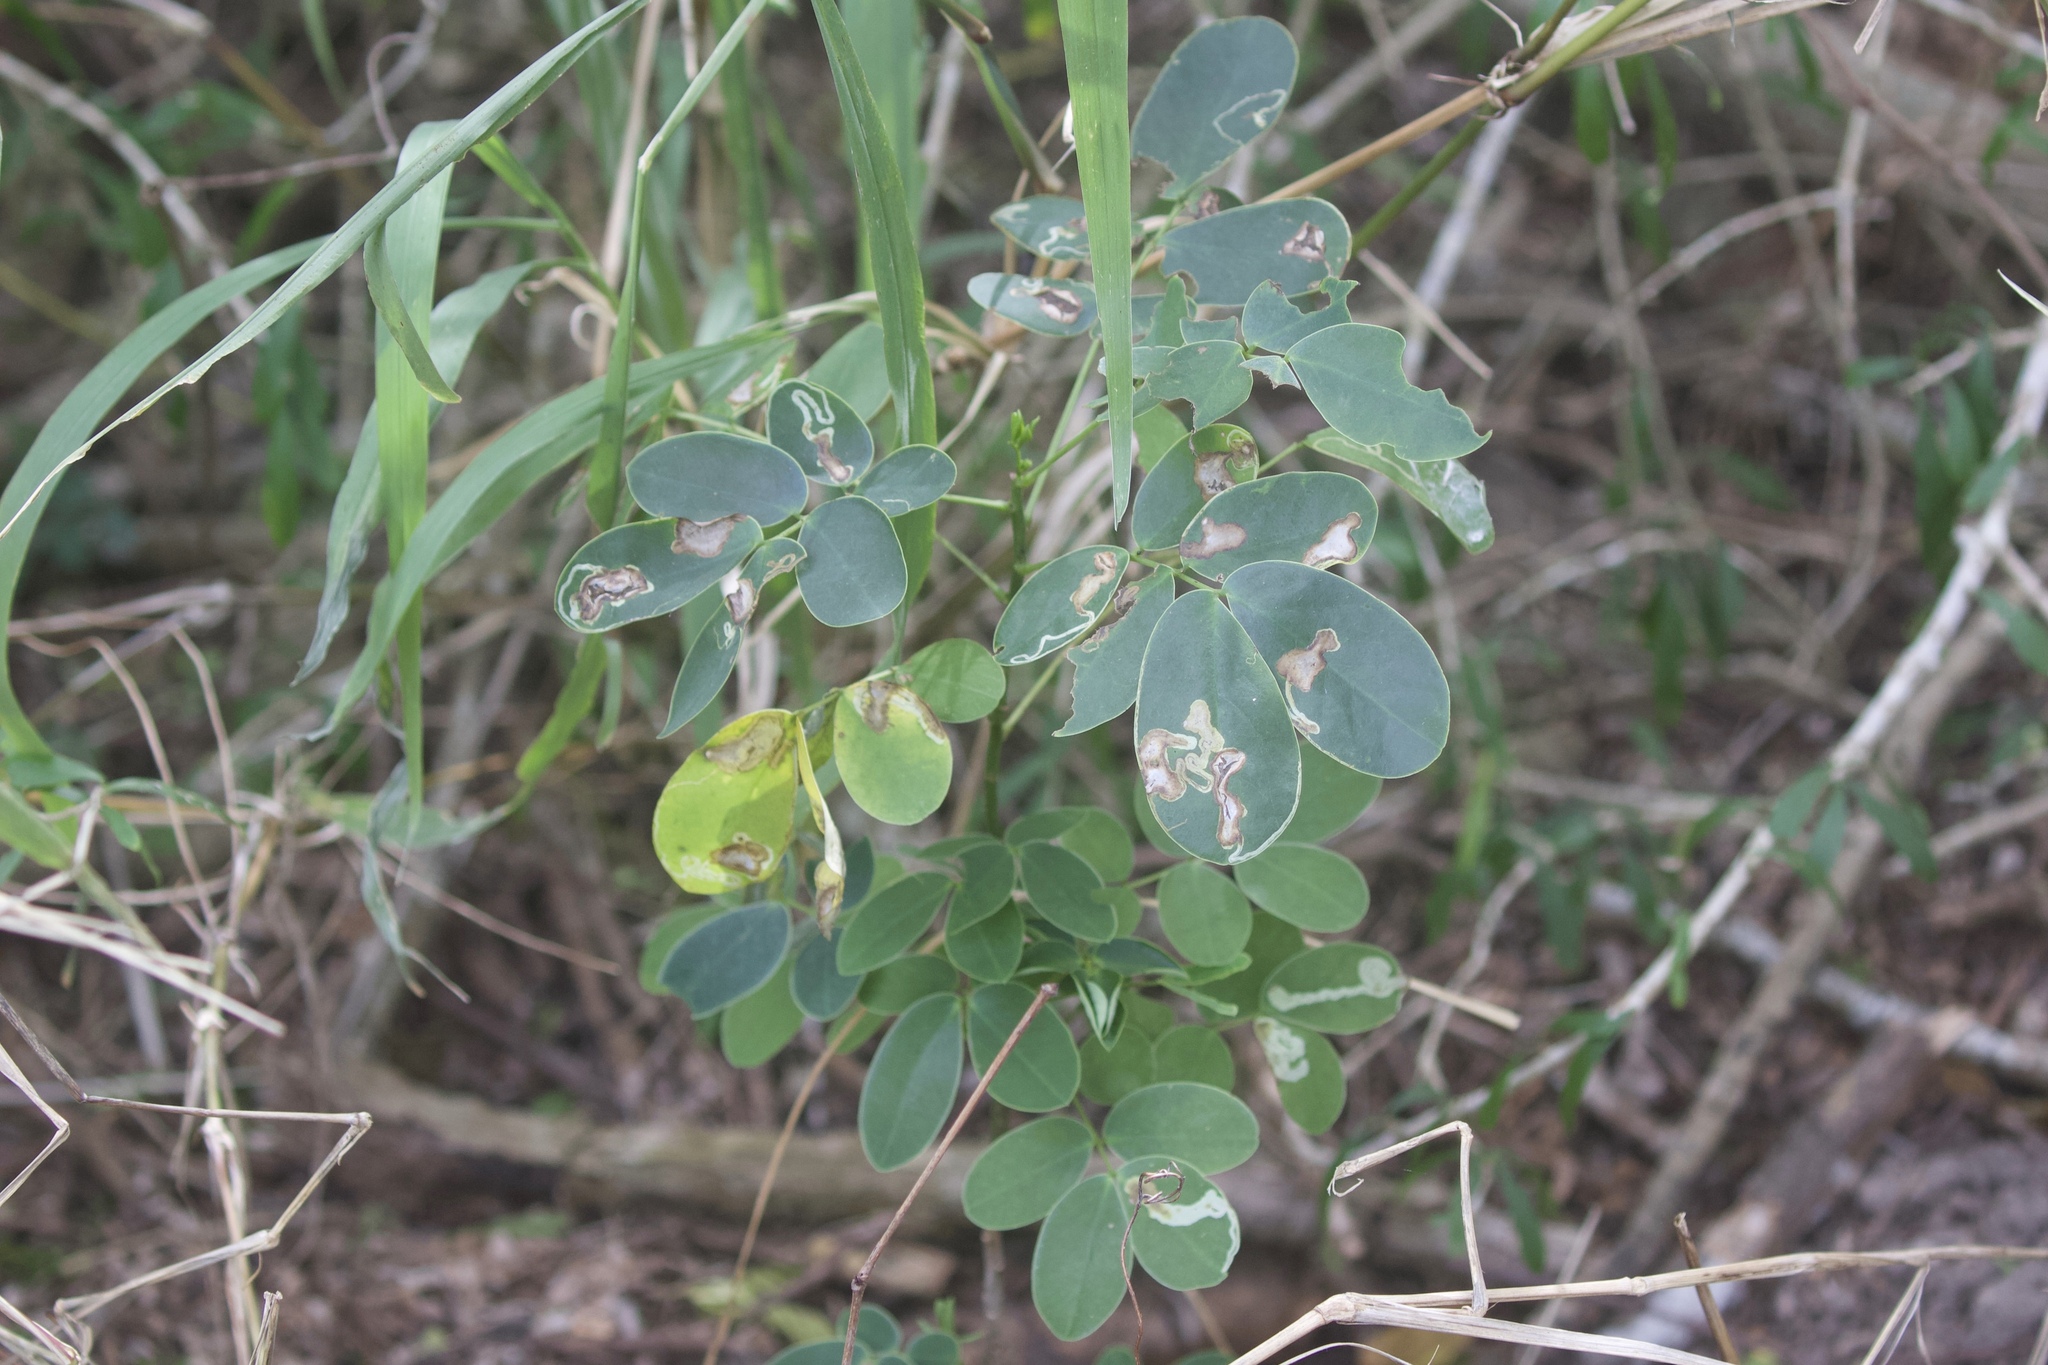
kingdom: Plantae
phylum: Tracheophyta
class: Magnoliopsida
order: Fabales
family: Fabaceae
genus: Senna
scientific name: Senna pendula
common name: Easter cassia
